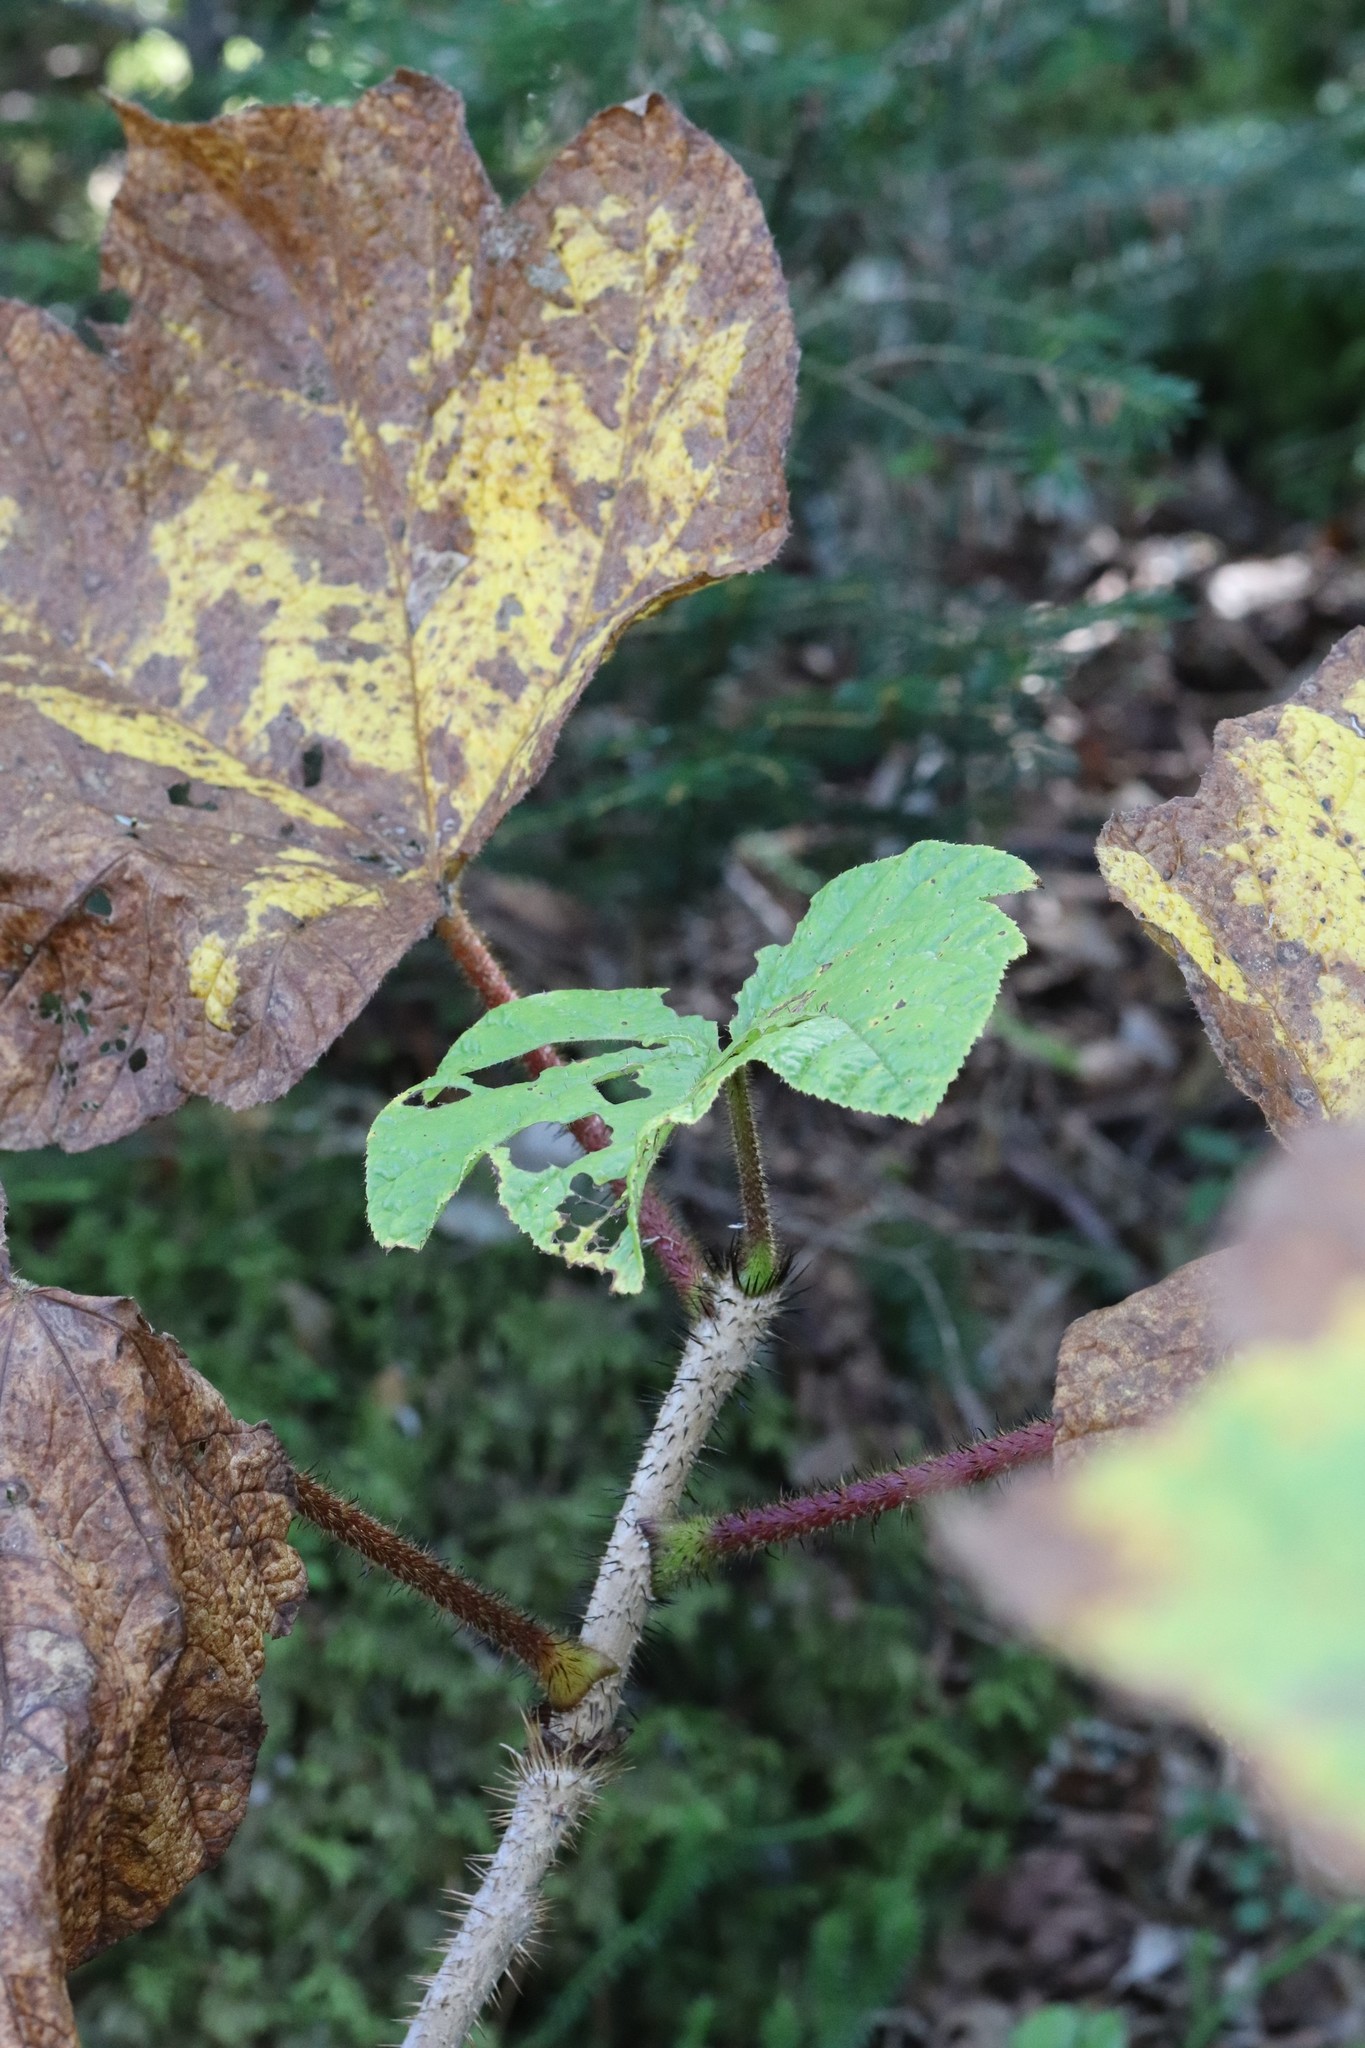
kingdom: Plantae
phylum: Tracheophyta
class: Magnoliopsida
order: Apiales
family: Araliaceae
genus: Oplopanax
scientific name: Oplopanax elatus
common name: Japanese devil's-club
